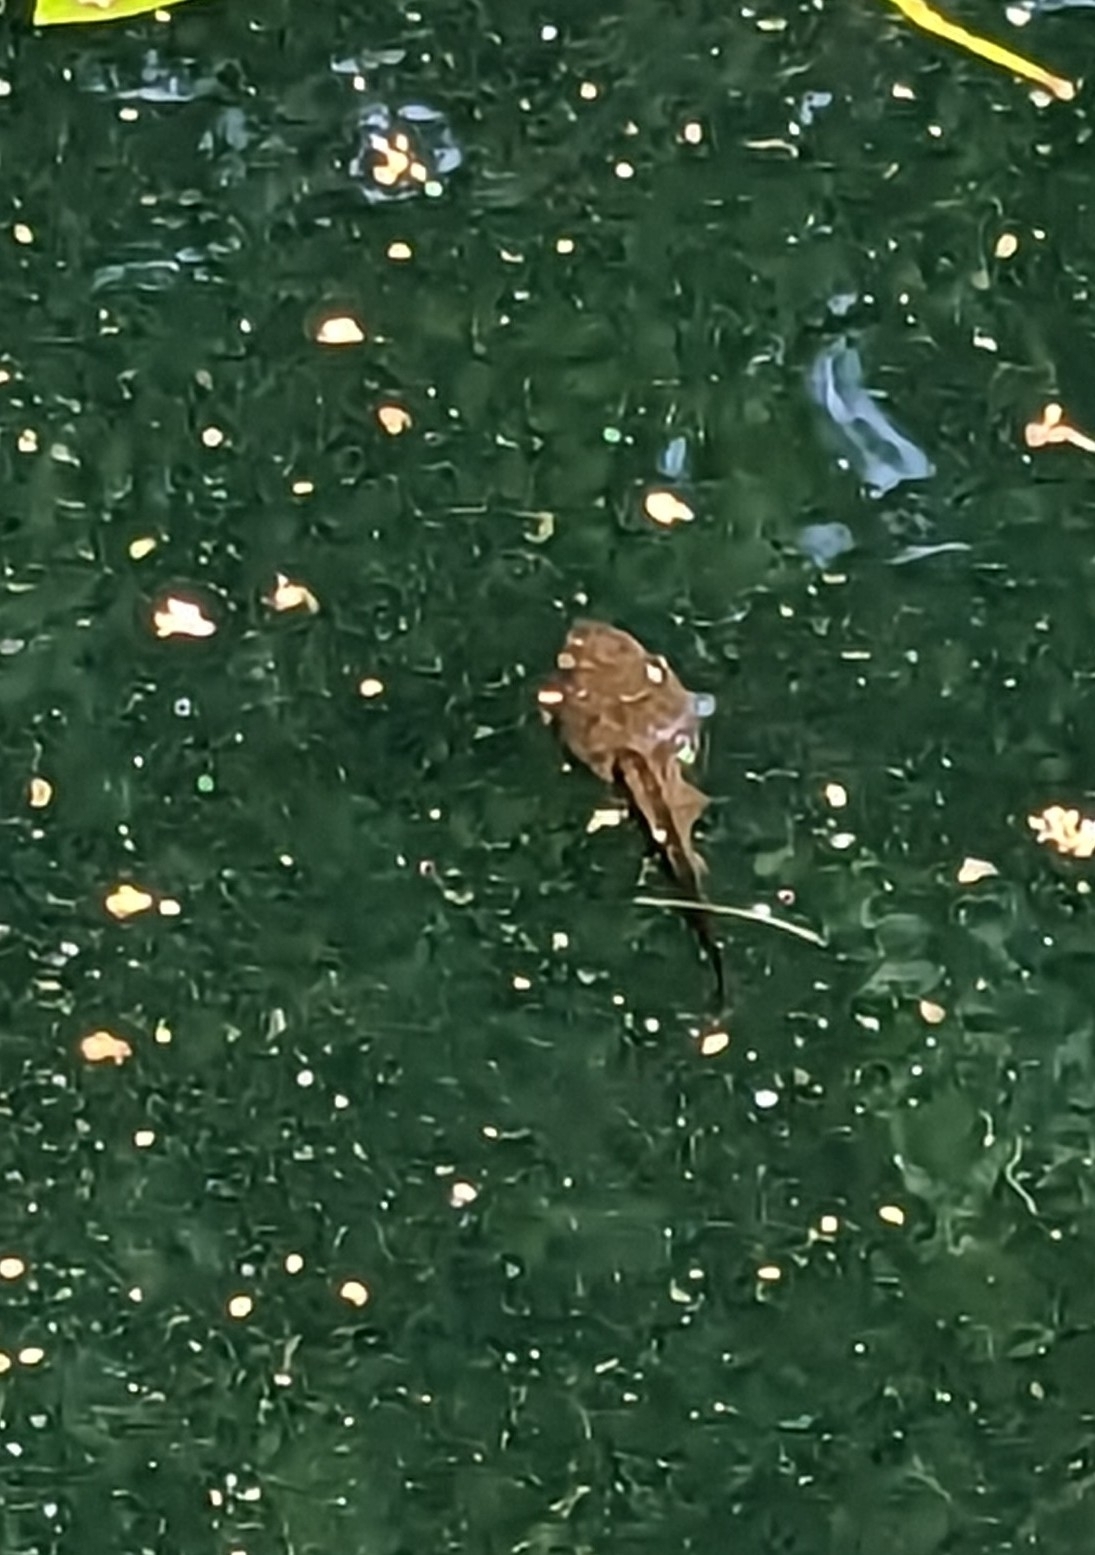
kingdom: Animalia
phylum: Chordata
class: Amphibia
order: Anura
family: Ranidae
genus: Lithobates
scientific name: Lithobates catesbeianus
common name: American bullfrog
